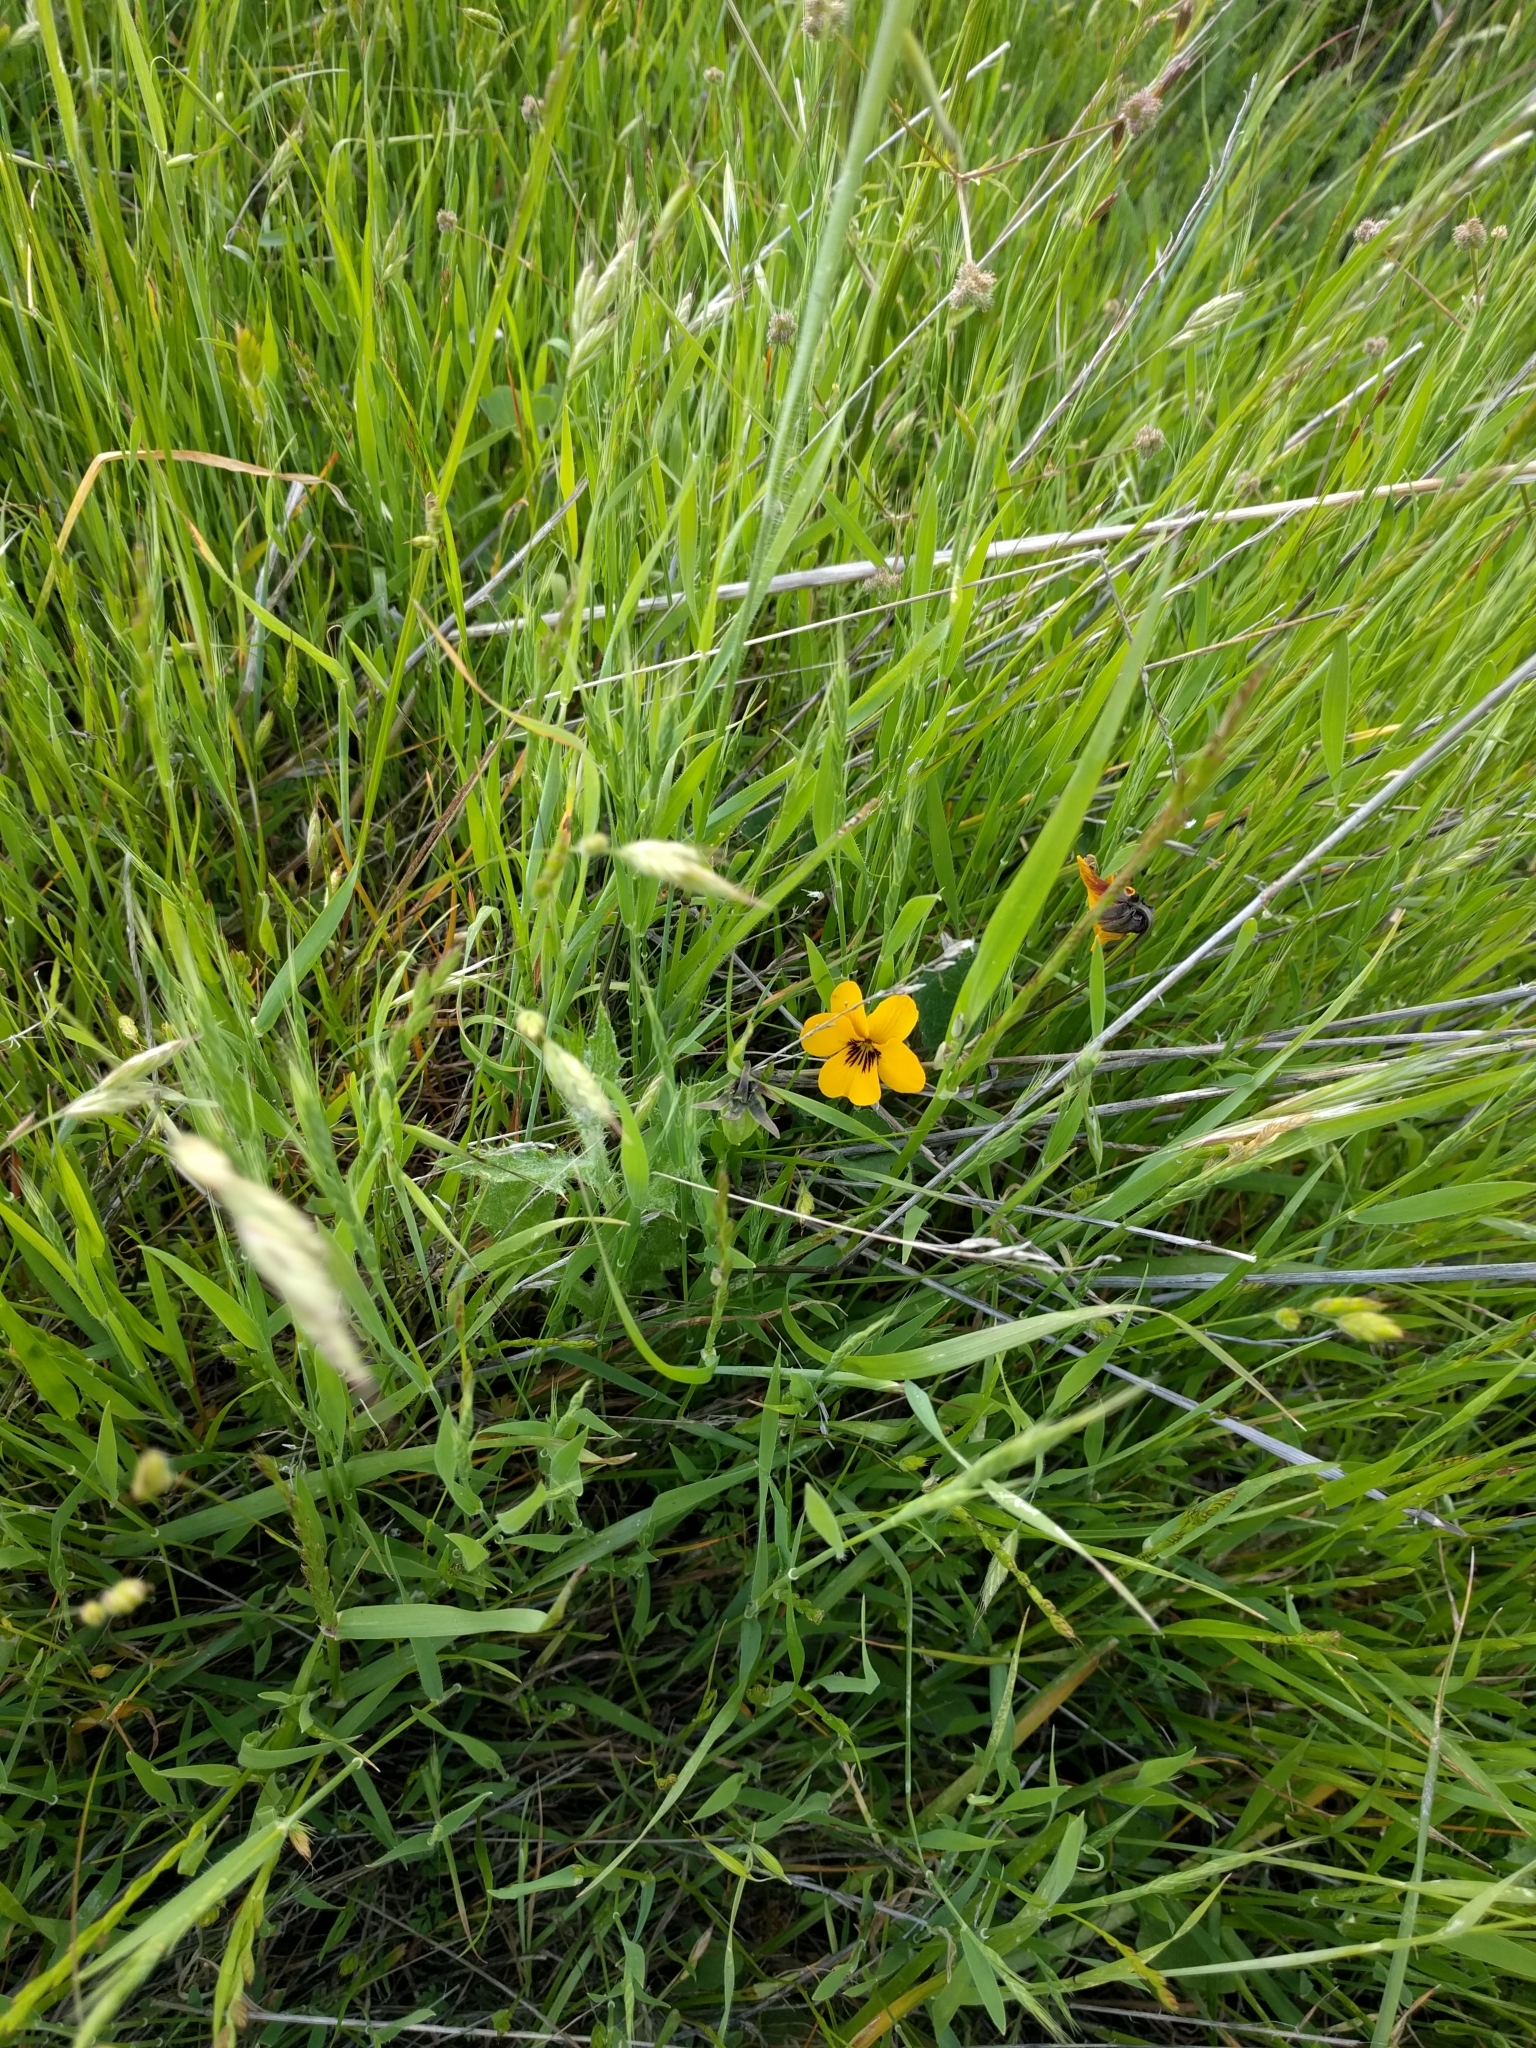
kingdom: Plantae
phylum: Tracheophyta
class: Magnoliopsida
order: Malpighiales
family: Violaceae
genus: Viola
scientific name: Viola pedunculata
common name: California golden violet
